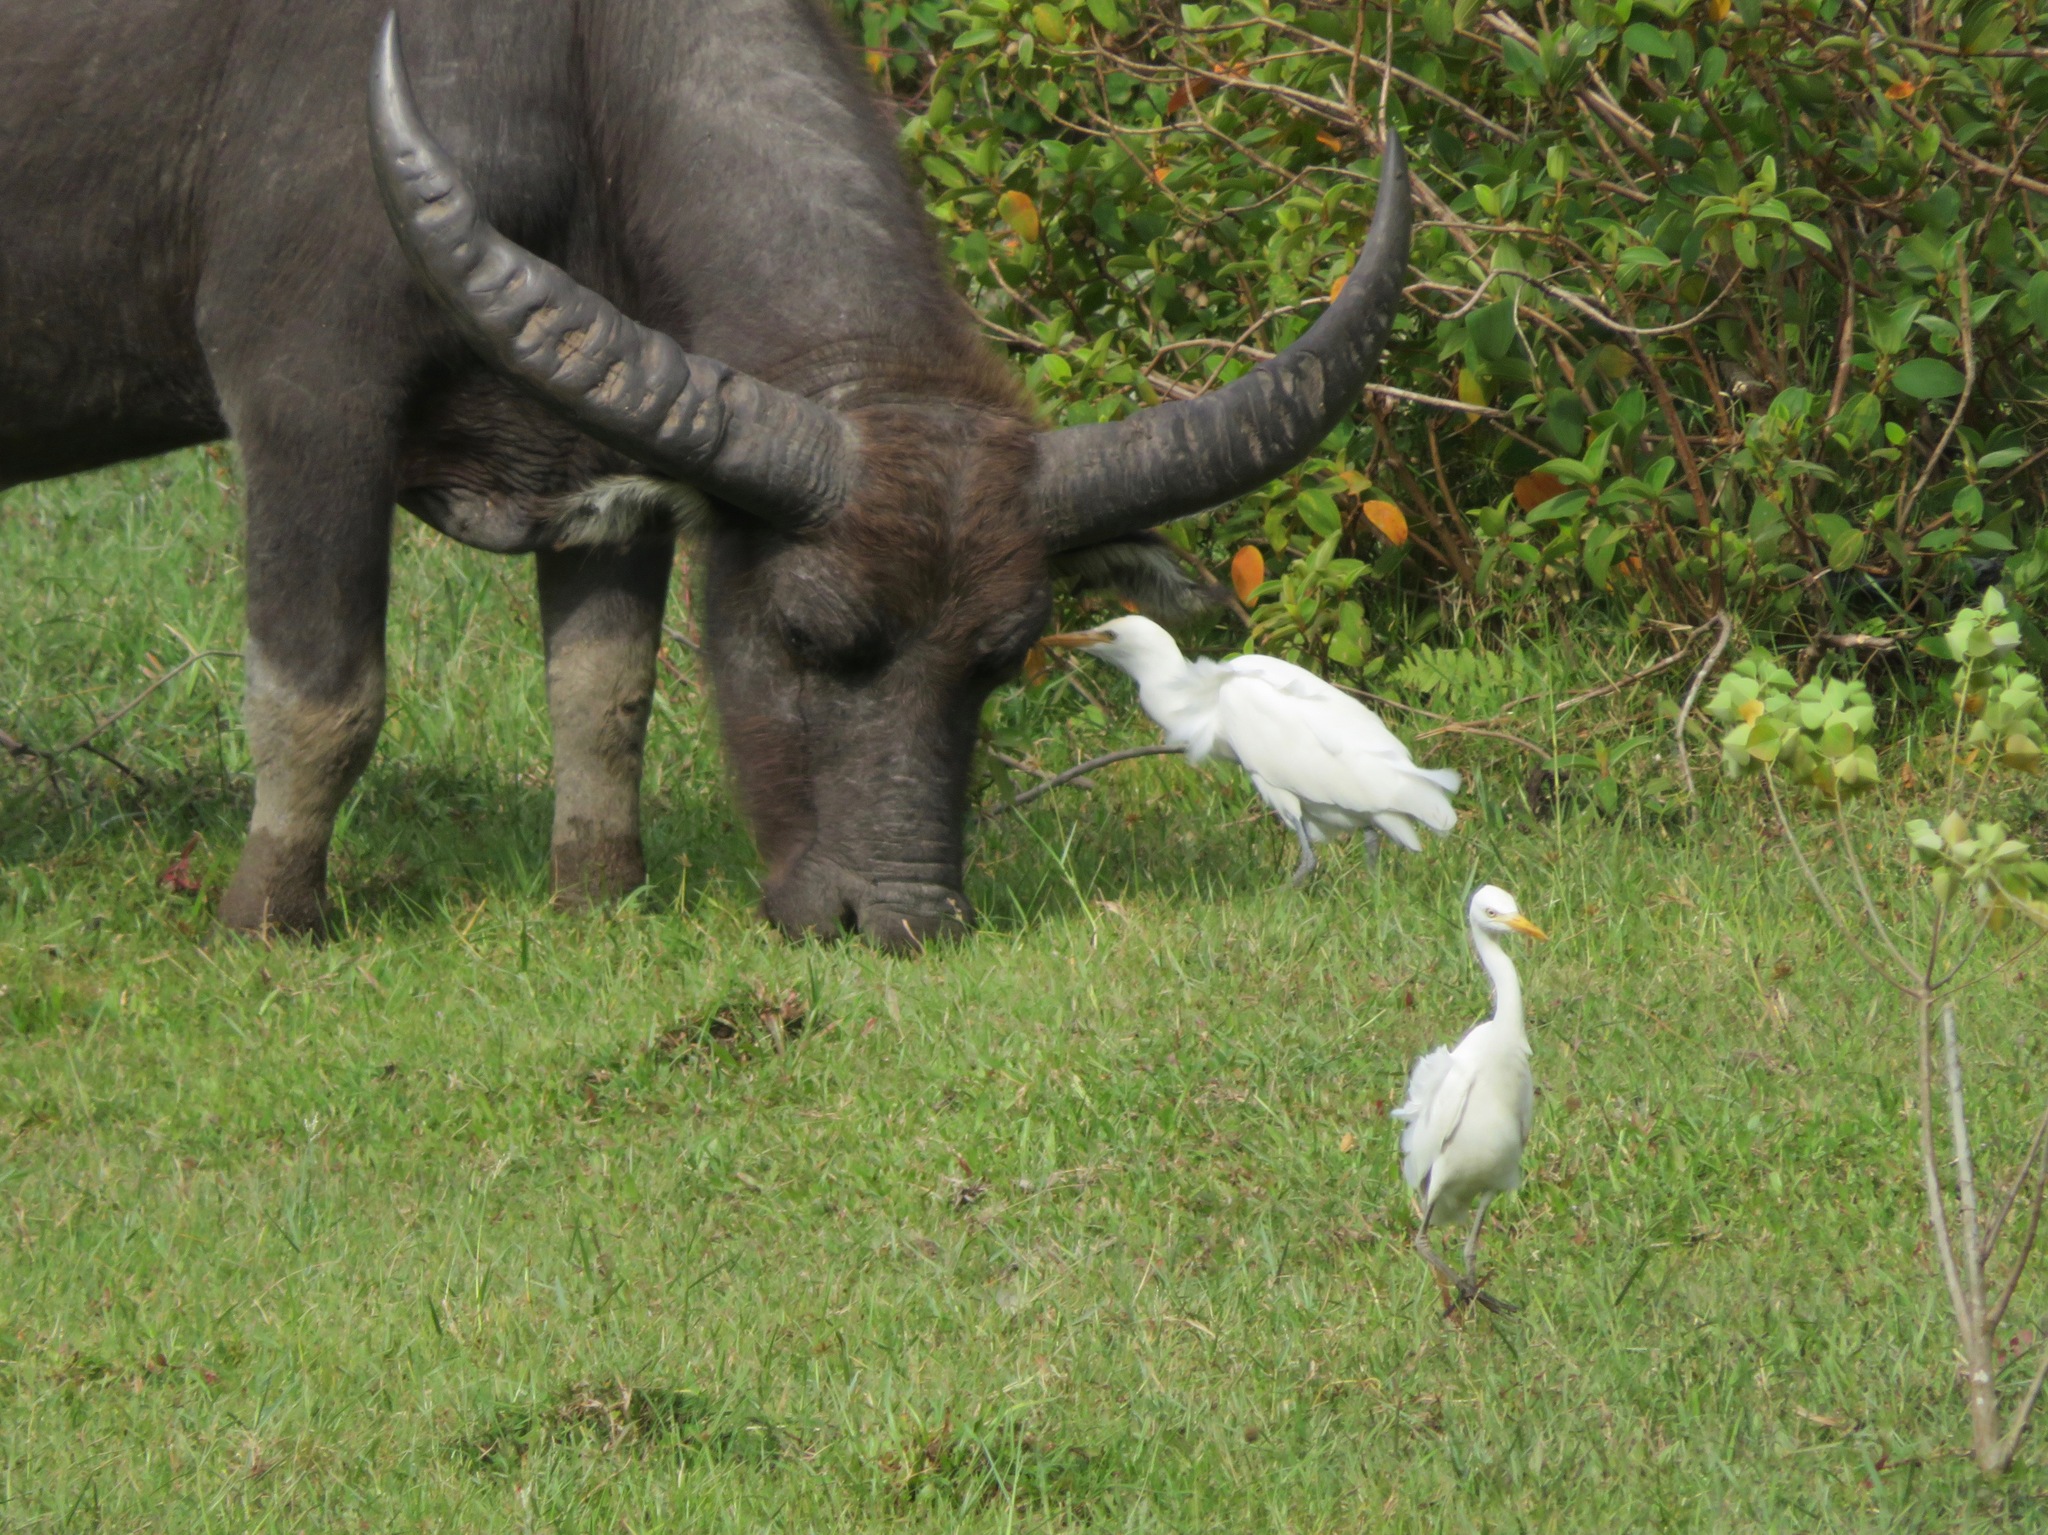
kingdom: Animalia
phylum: Chordata
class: Aves
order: Pelecaniformes
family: Ardeidae
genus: Bubulcus
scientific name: Bubulcus coromandus
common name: Eastern cattle egret
